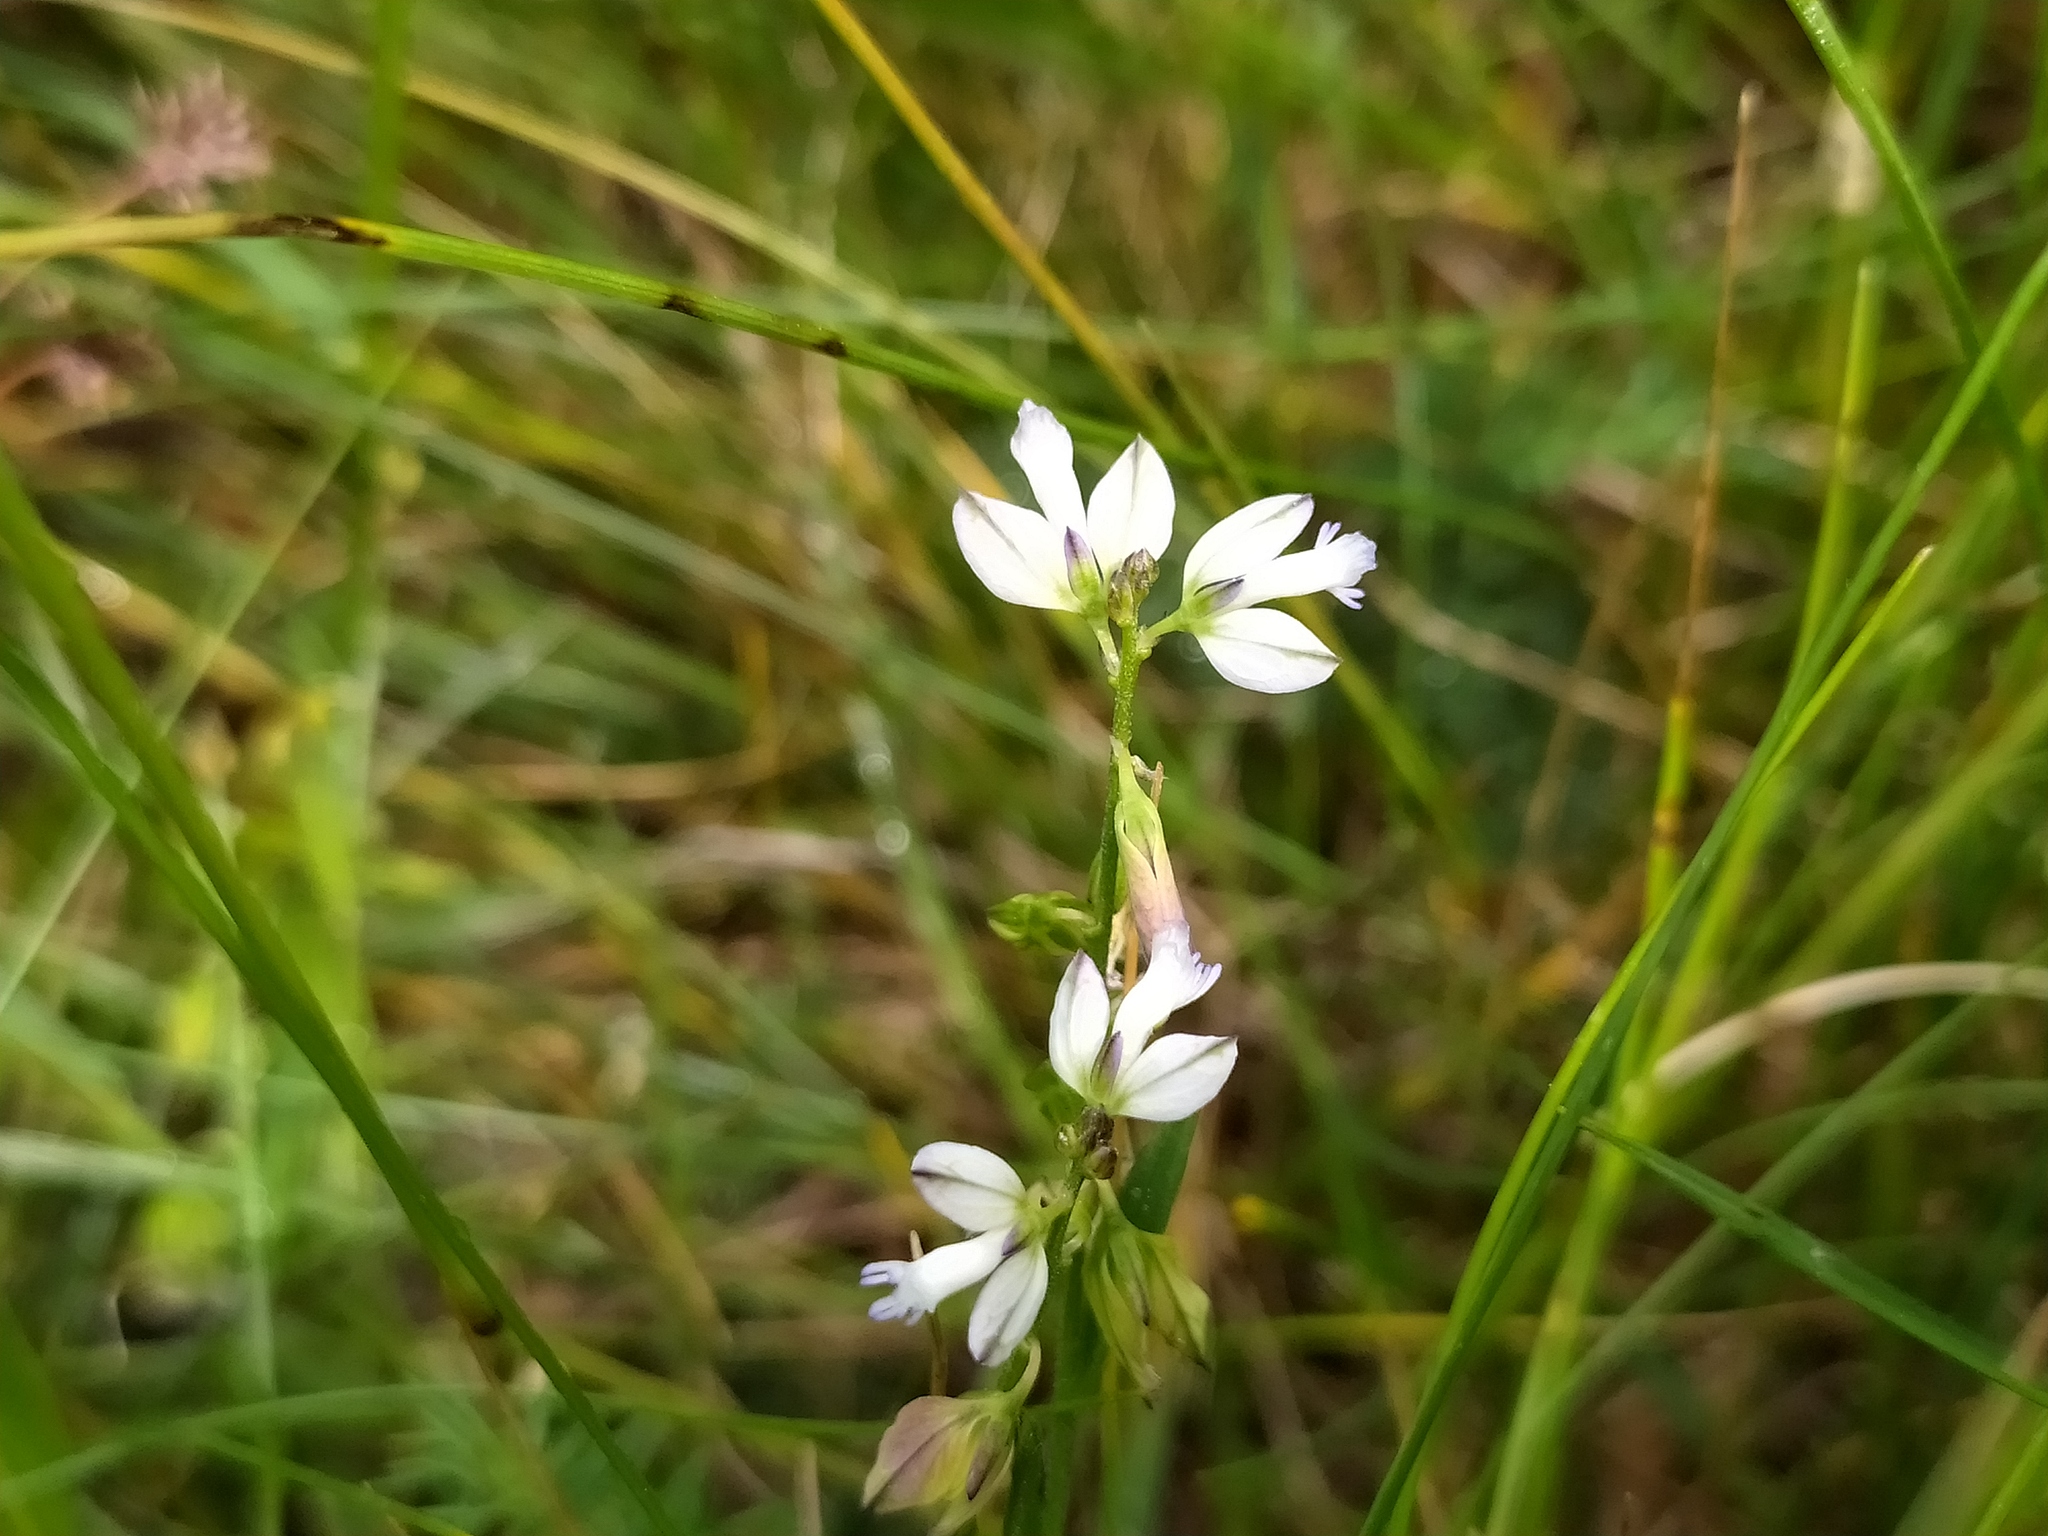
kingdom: Plantae
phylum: Tracheophyta
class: Magnoliopsida
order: Fabales
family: Polygalaceae
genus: Polygala
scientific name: Polygala vulgaris
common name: Common milkwort
